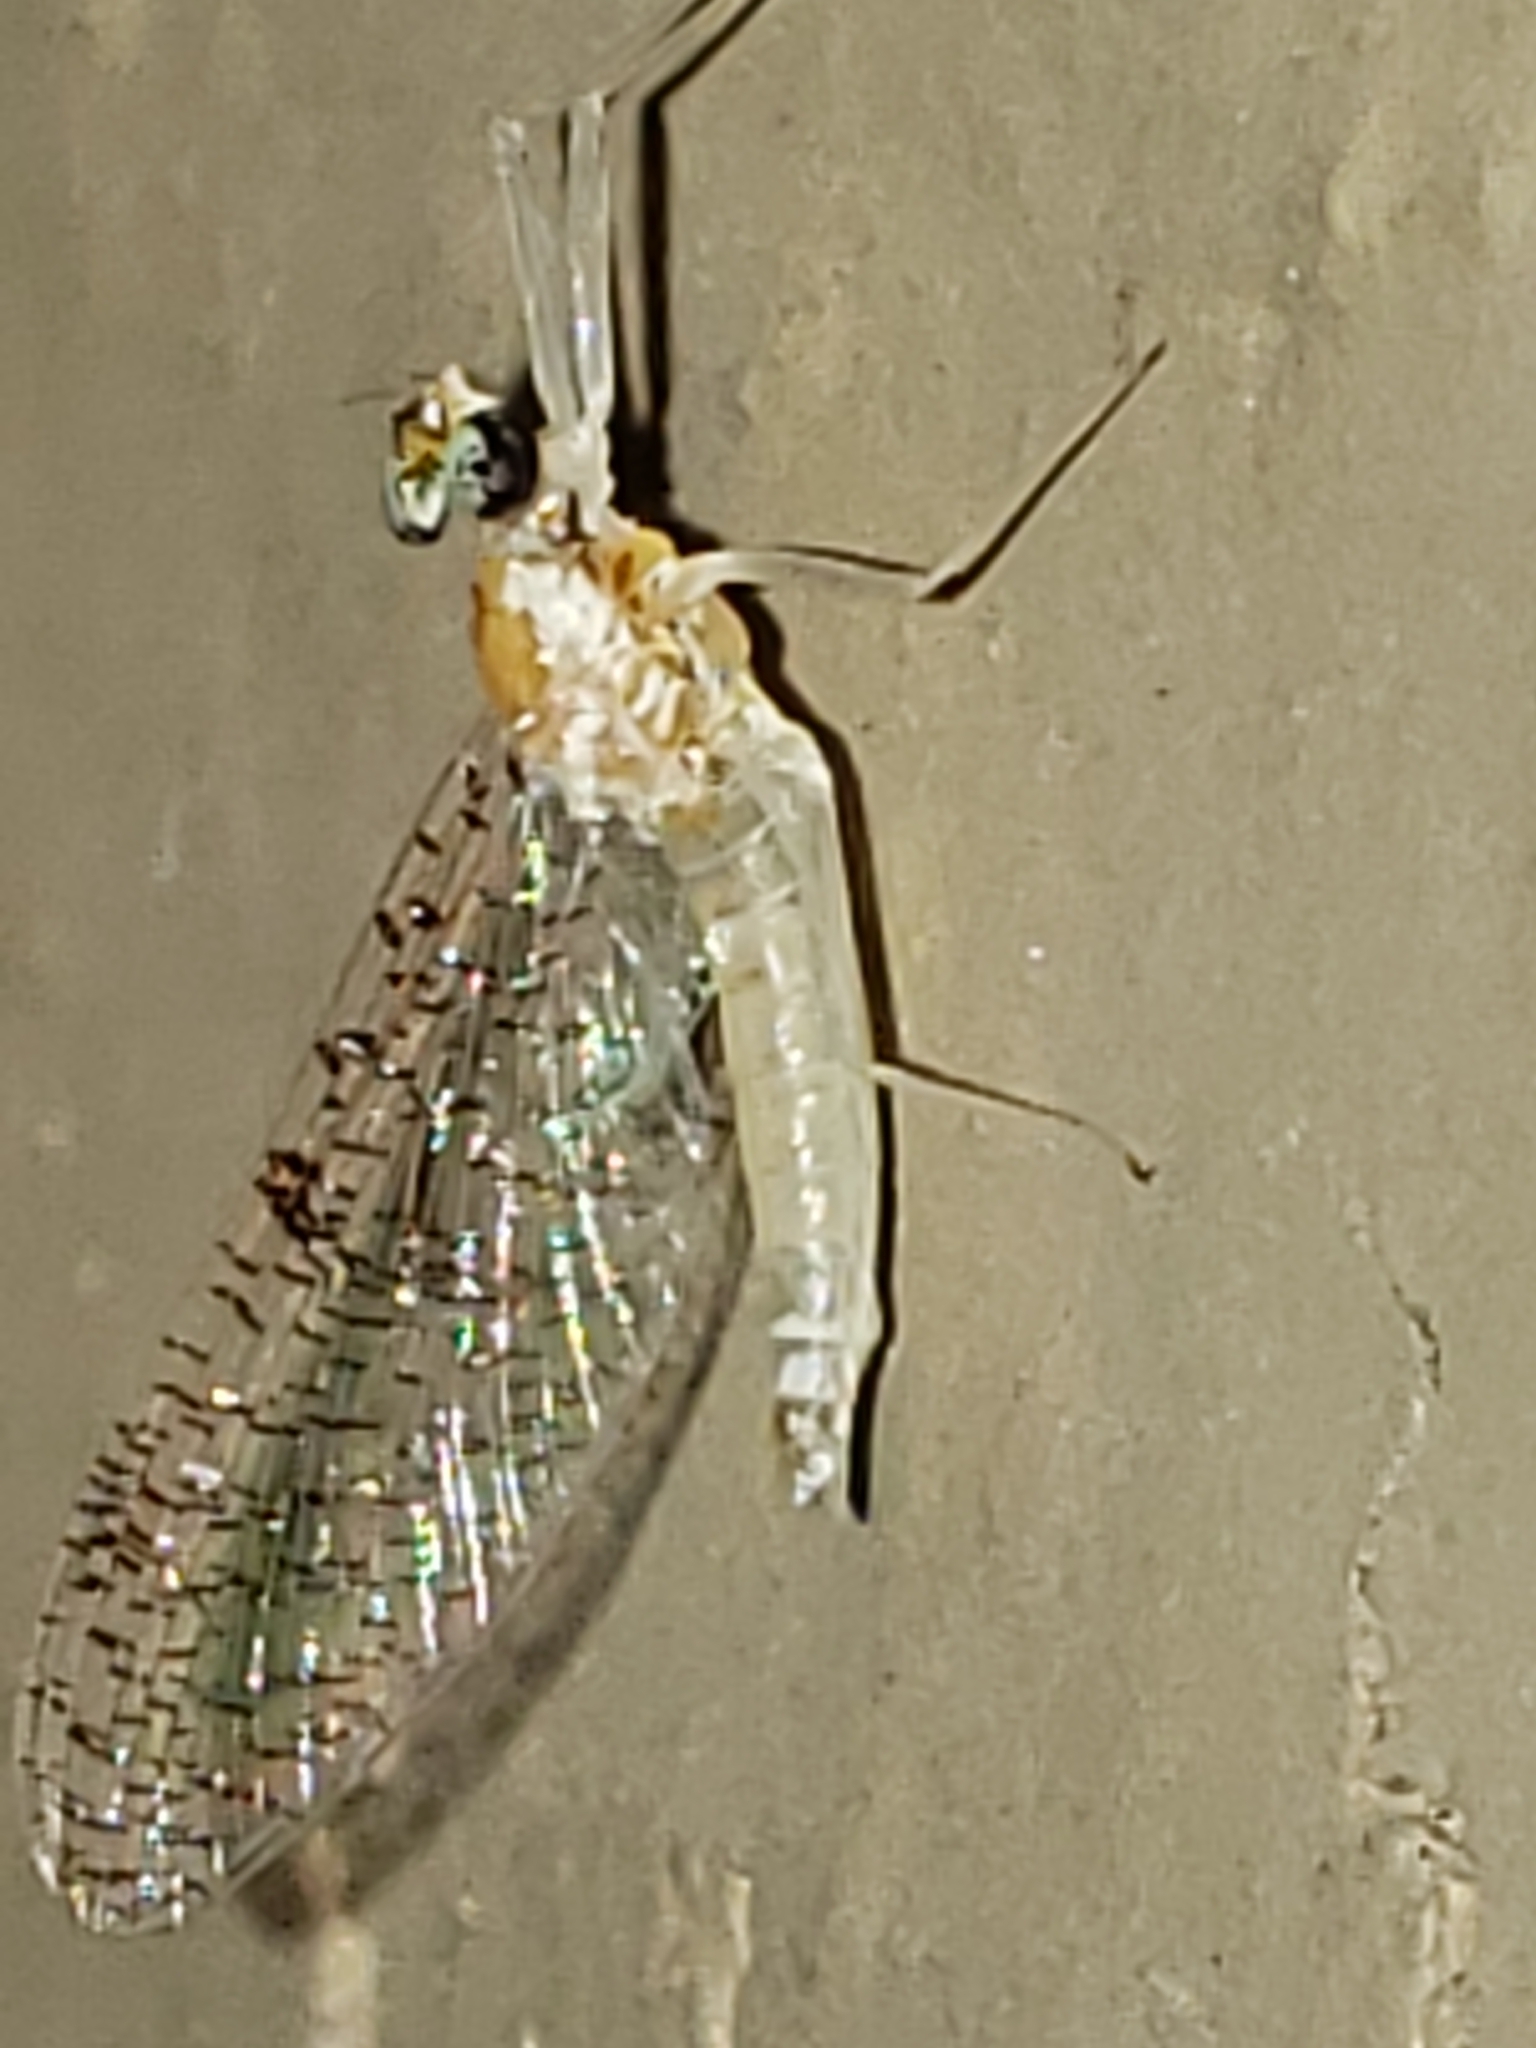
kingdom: Animalia
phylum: Arthropoda
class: Insecta
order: Ephemeroptera
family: Heptageniidae
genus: Leucrocuta
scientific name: Leucrocuta juno
